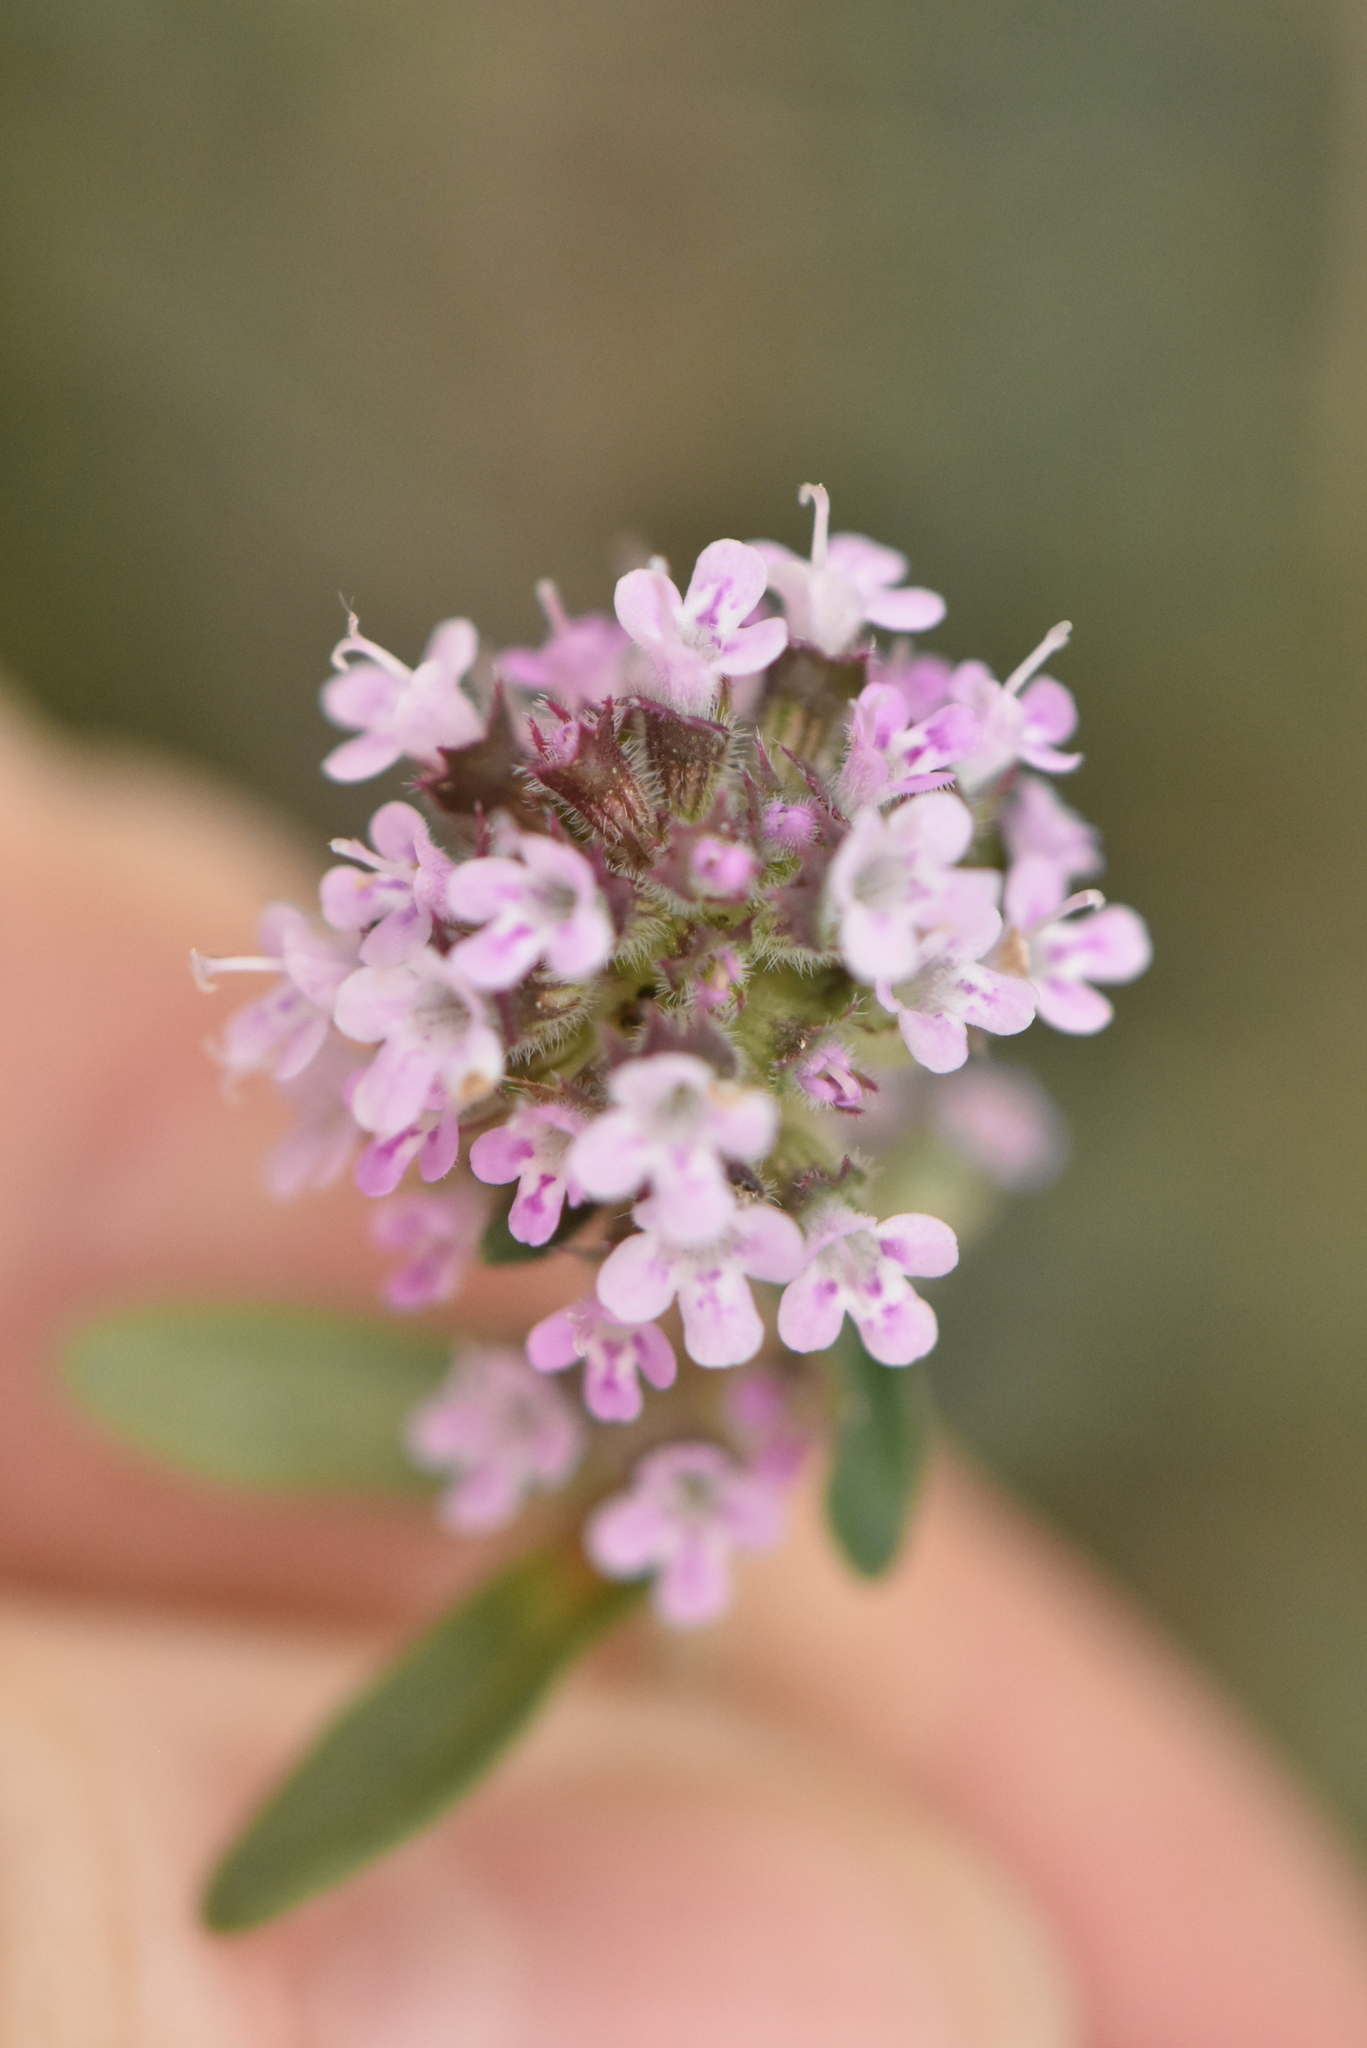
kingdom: Plantae
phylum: Tracheophyta
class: Magnoliopsida
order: Lamiales
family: Lamiaceae
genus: Thymus
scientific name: Thymus pannonicus
